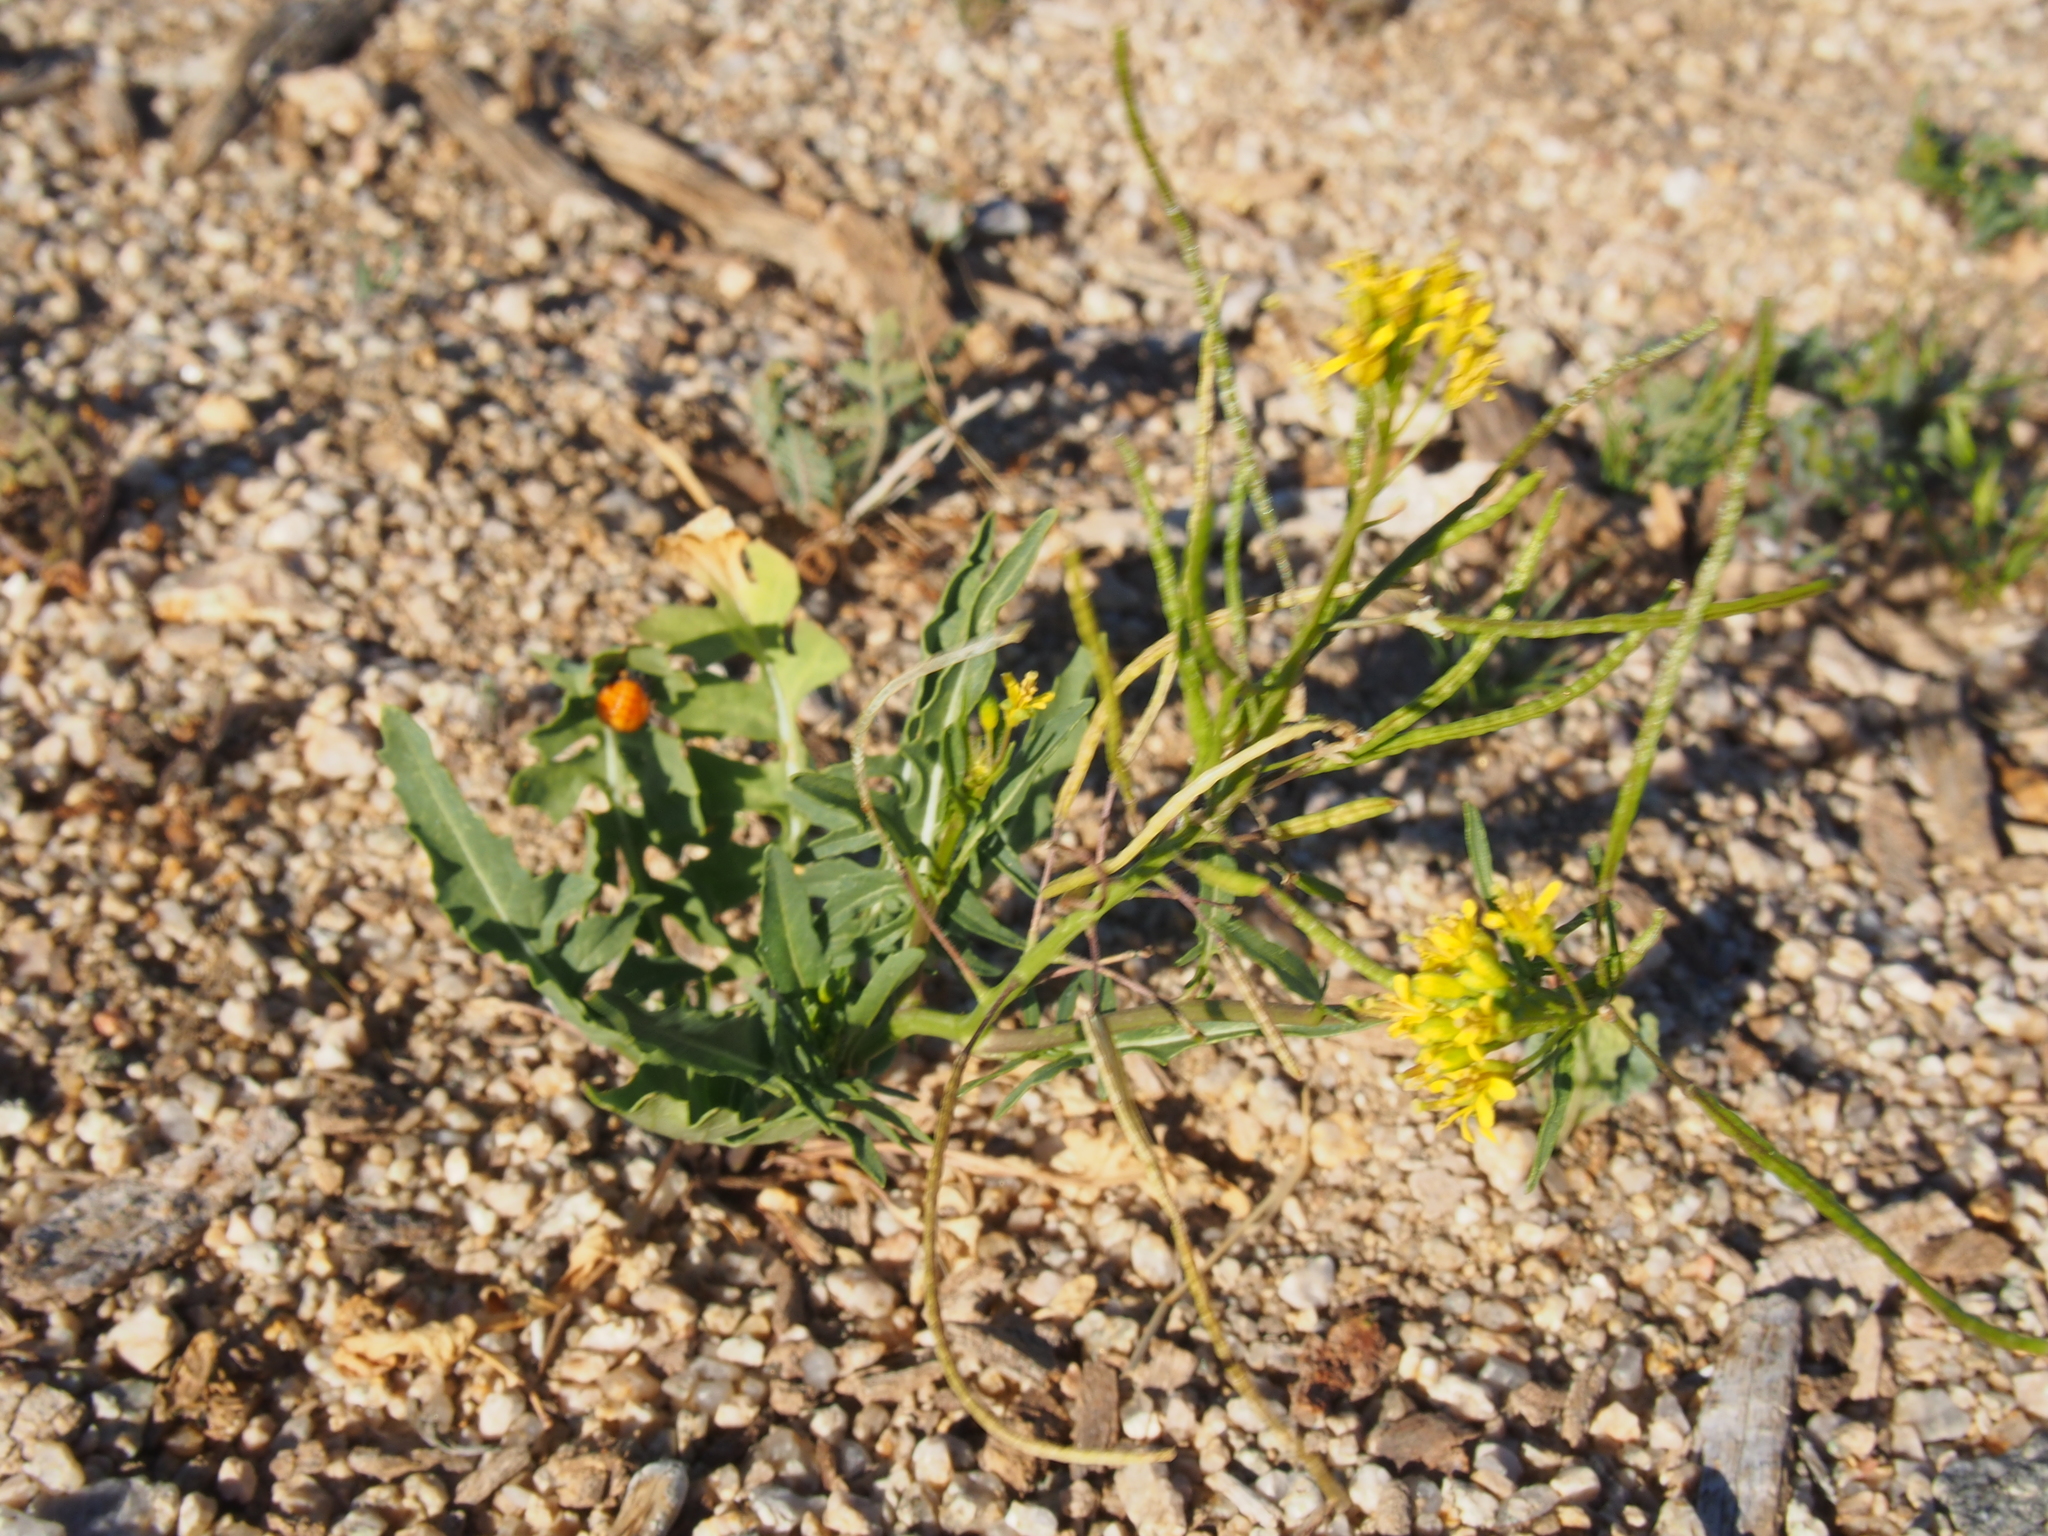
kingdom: Plantae
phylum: Tracheophyta
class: Magnoliopsida
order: Brassicales
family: Brassicaceae
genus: Sisymbrium
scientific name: Sisymbrium irio
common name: London rocket
